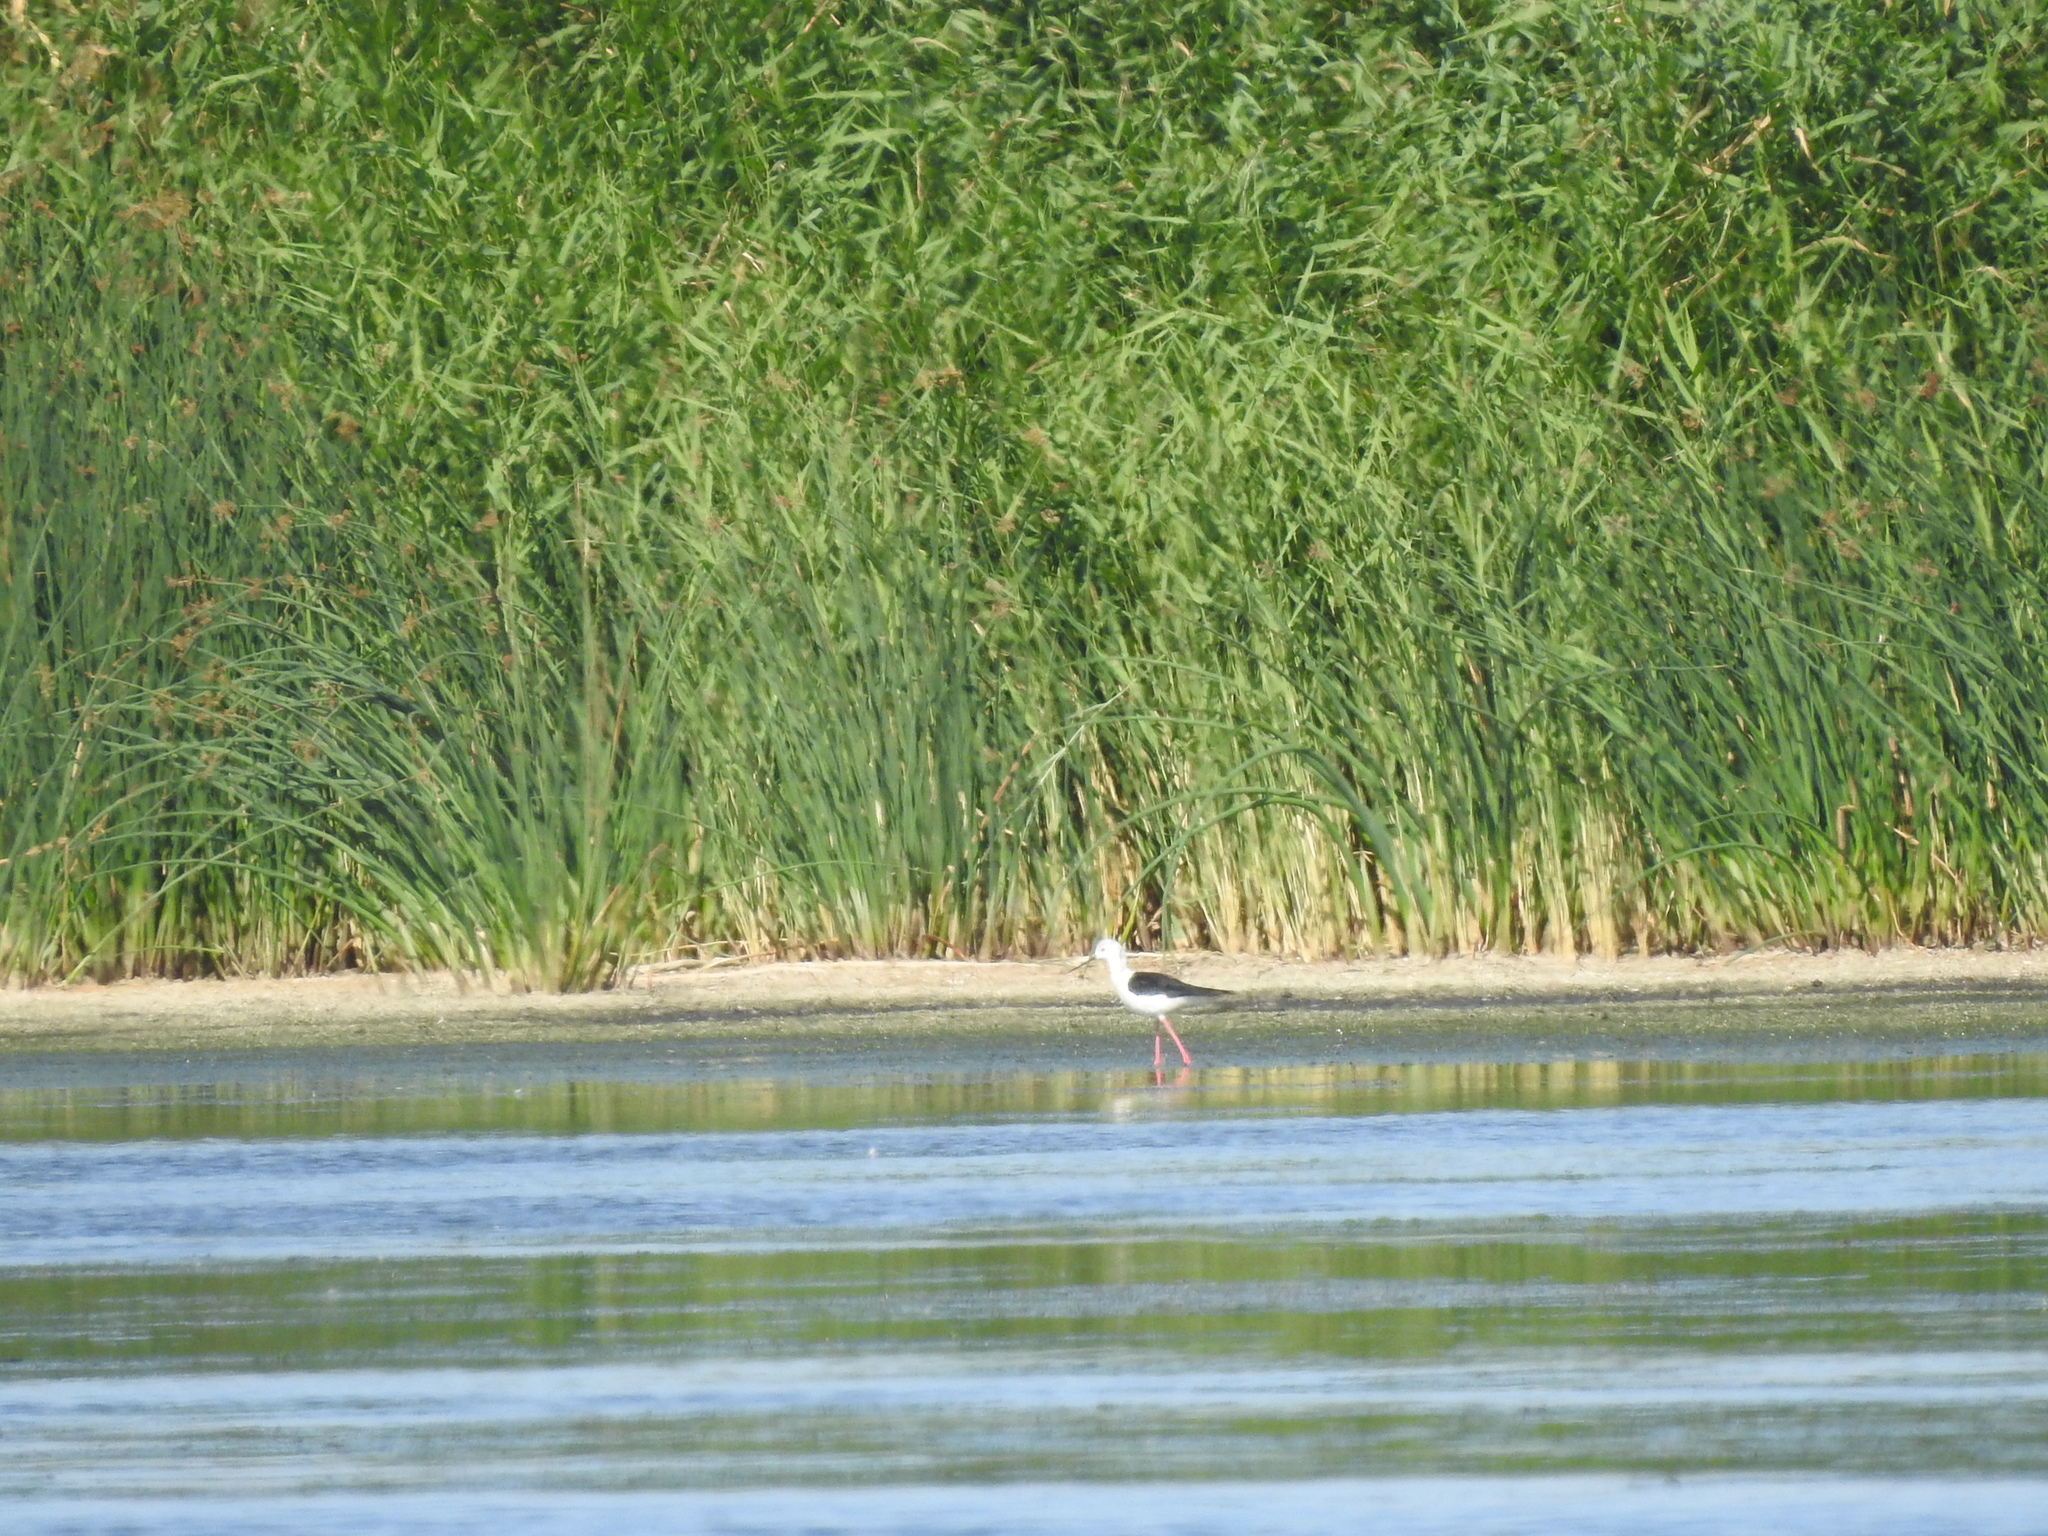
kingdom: Animalia
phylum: Chordata
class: Aves
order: Charadriiformes
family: Recurvirostridae
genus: Himantopus
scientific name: Himantopus himantopus
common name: Black-winged stilt
